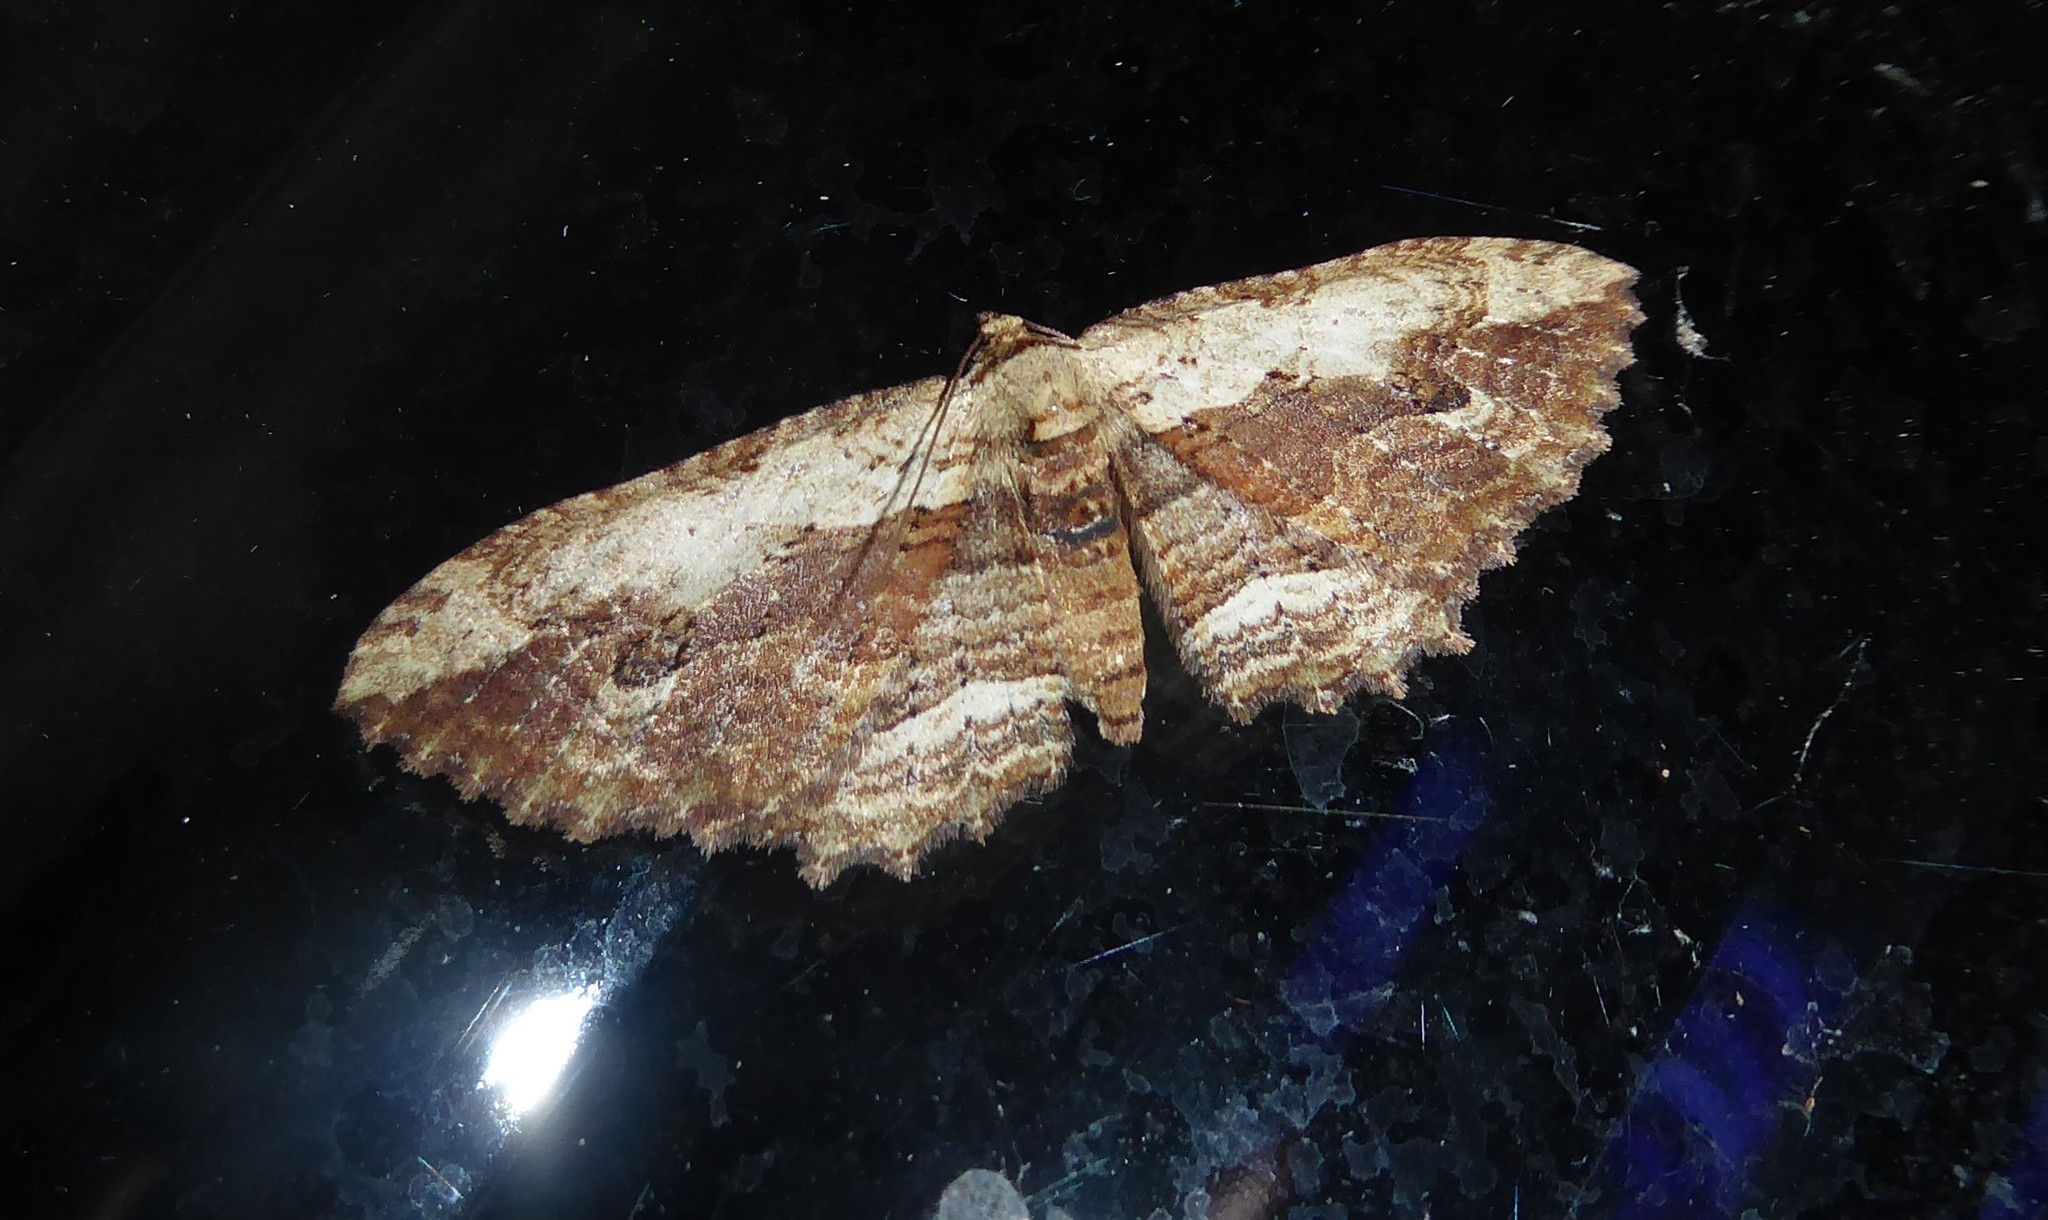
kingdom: Animalia
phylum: Arthropoda
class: Insecta
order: Lepidoptera
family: Geometridae
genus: Austrocidaria
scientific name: Austrocidaria bipartita
